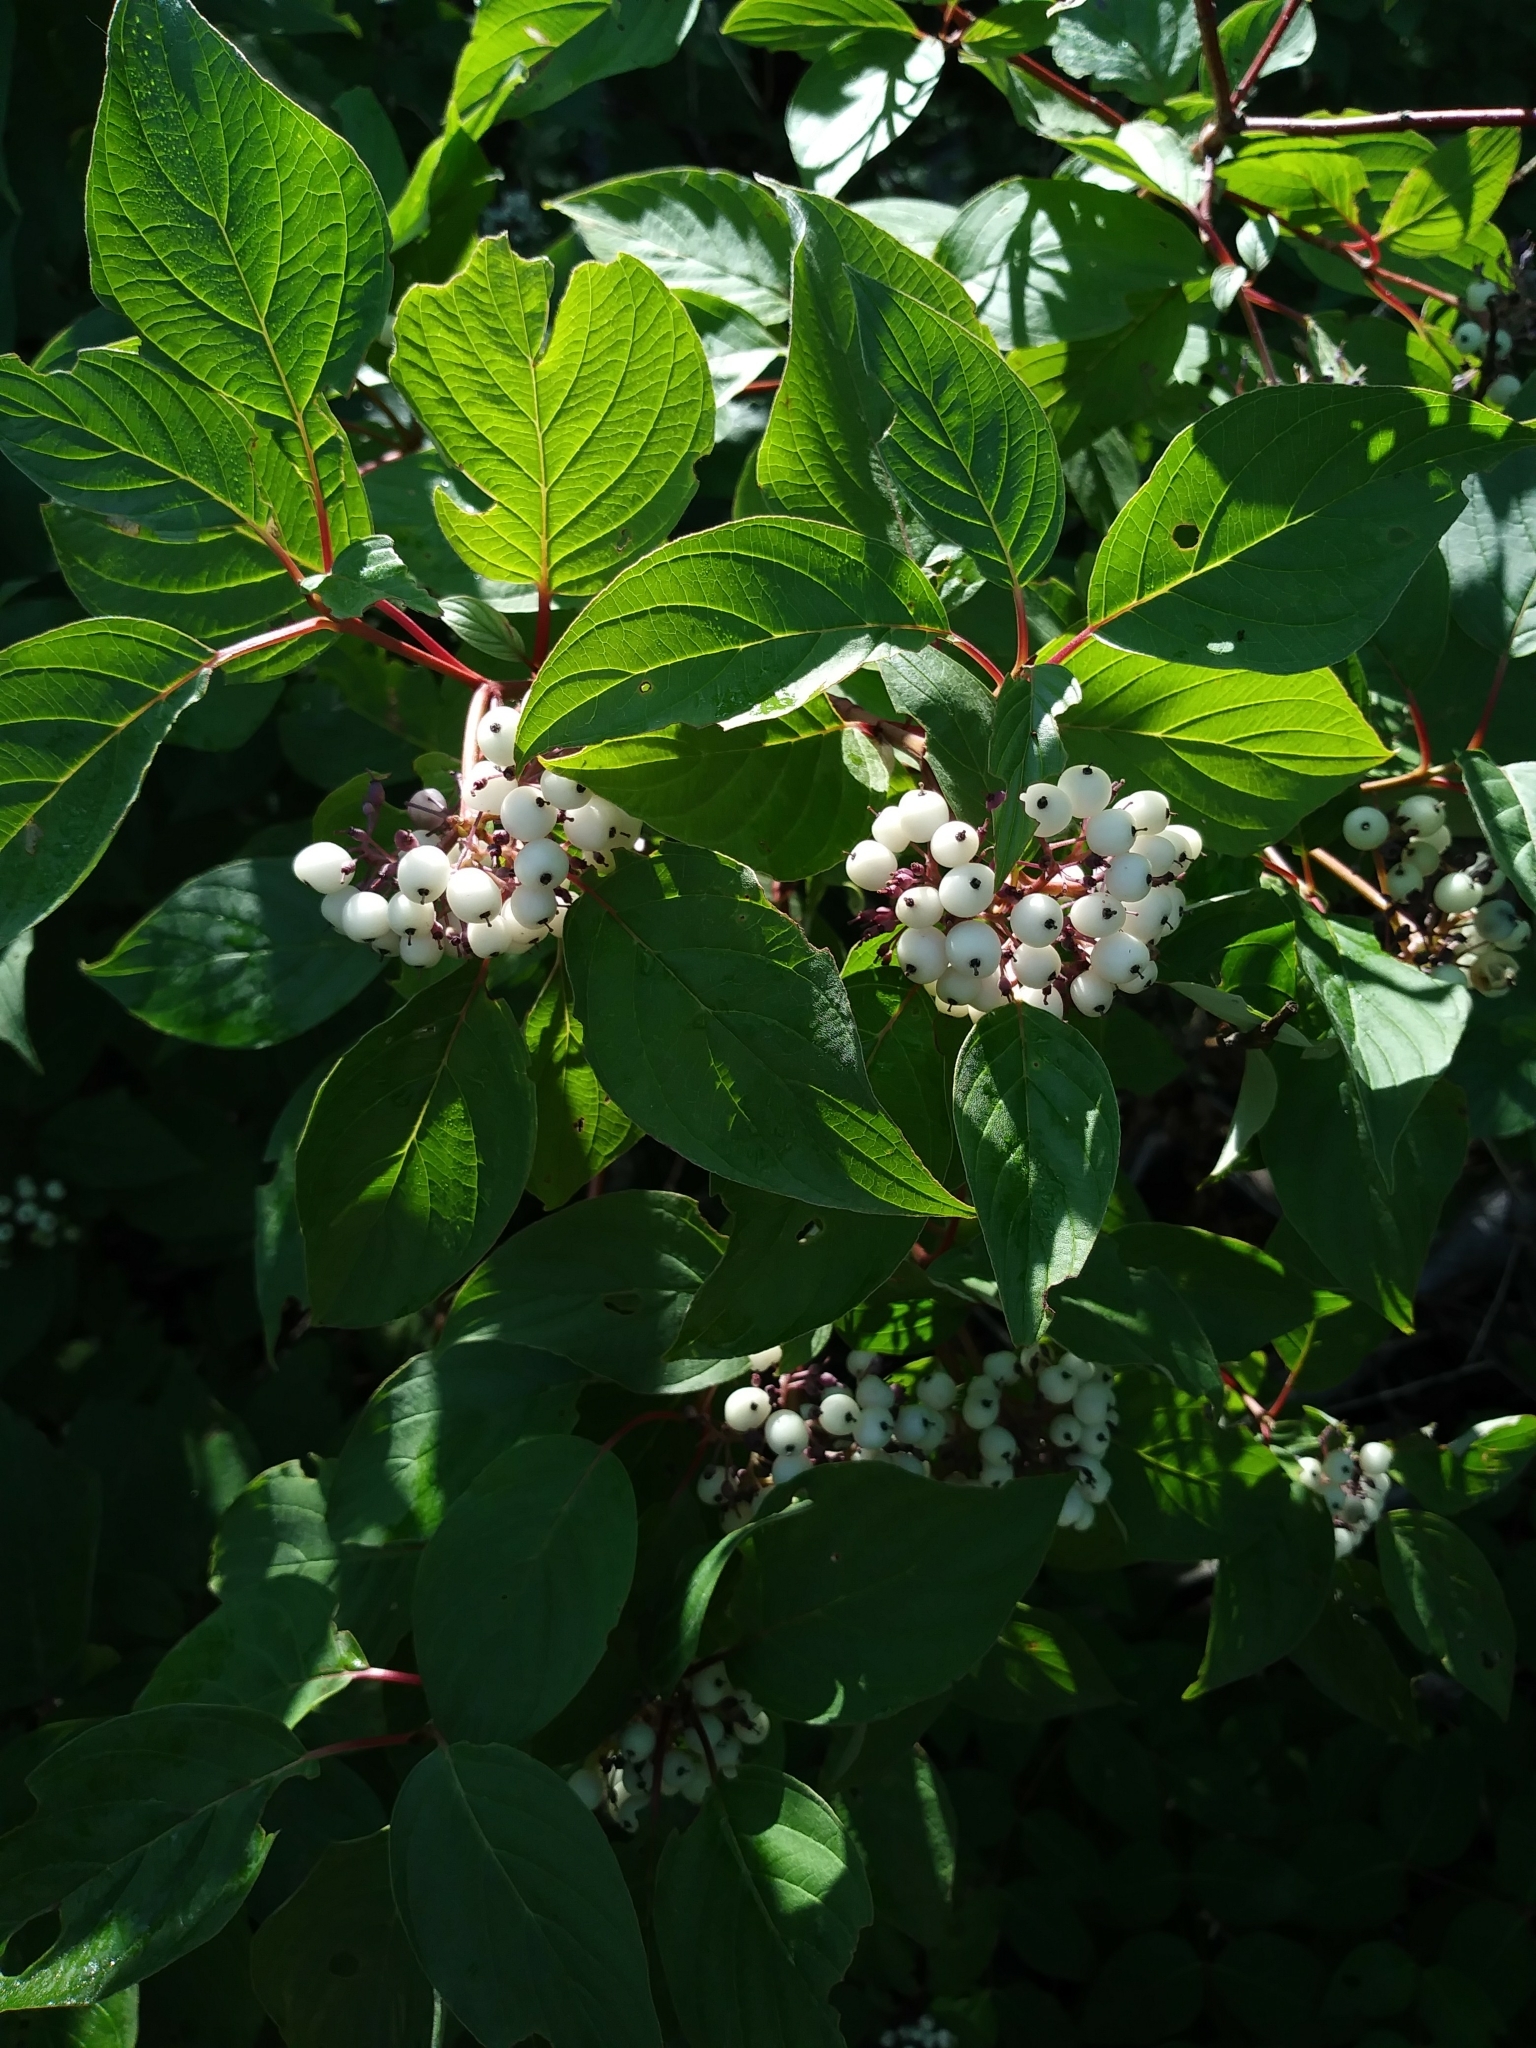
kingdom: Plantae
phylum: Tracheophyta
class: Magnoliopsida
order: Cornales
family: Cornaceae
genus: Cornus
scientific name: Cornus sericea
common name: Red-osier dogwood
